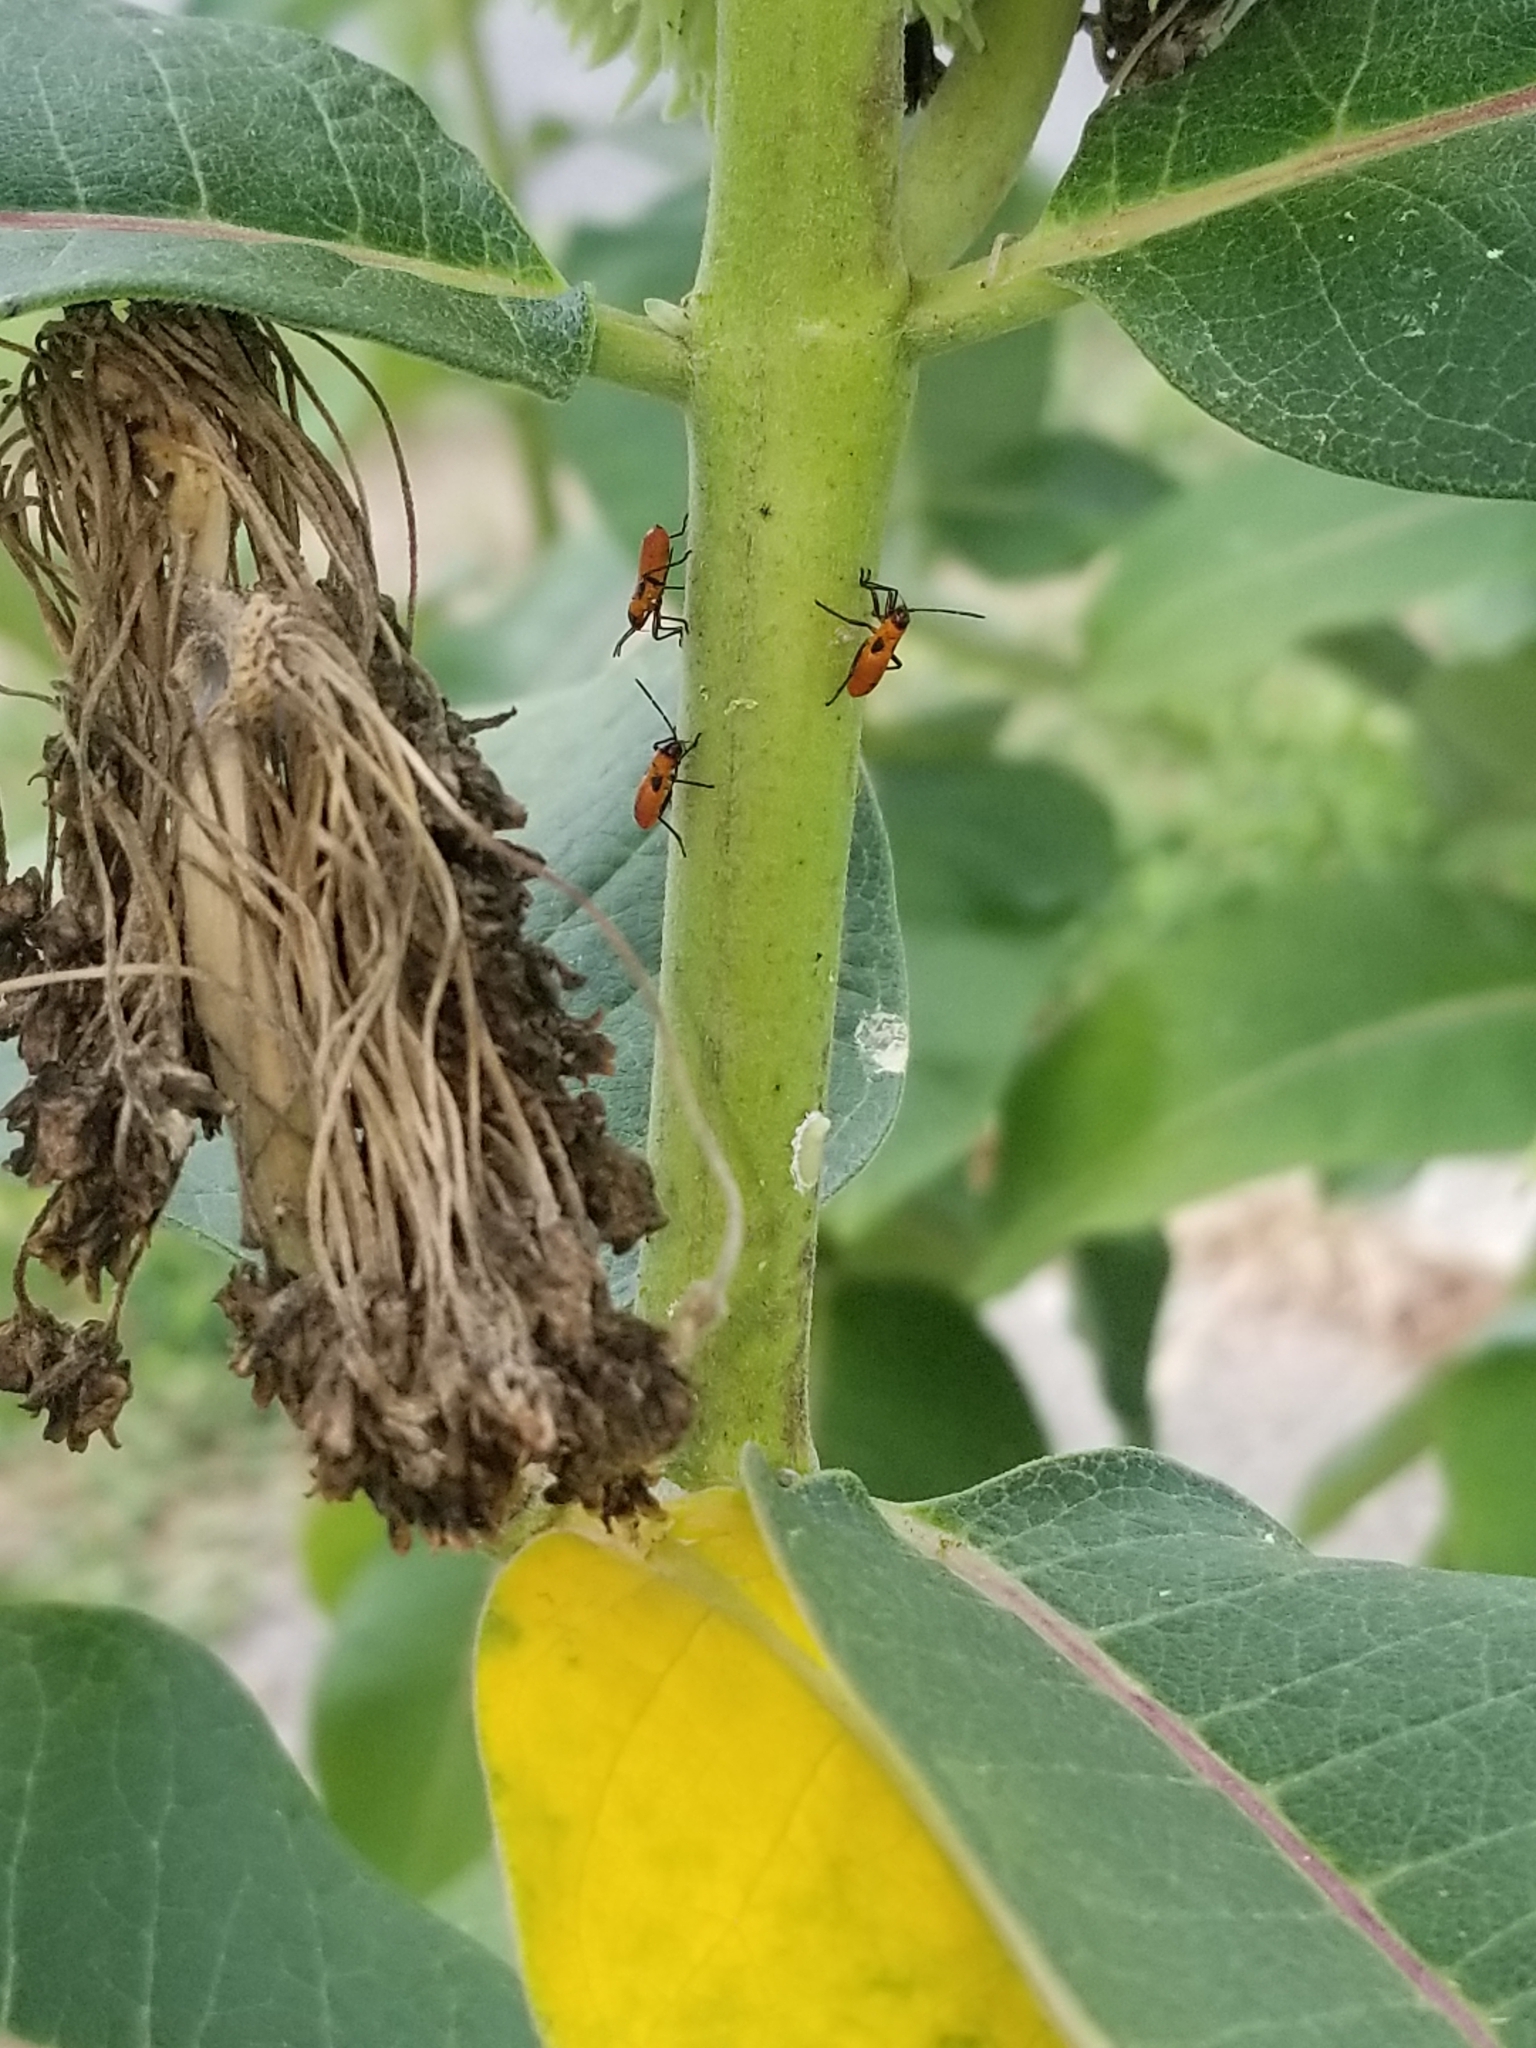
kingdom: Animalia
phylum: Arthropoda
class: Insecta
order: Hemiptera
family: Lygaeidae
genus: Oncopeltus
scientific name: Oncopeltus fasciatus
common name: Large milkweed bug
